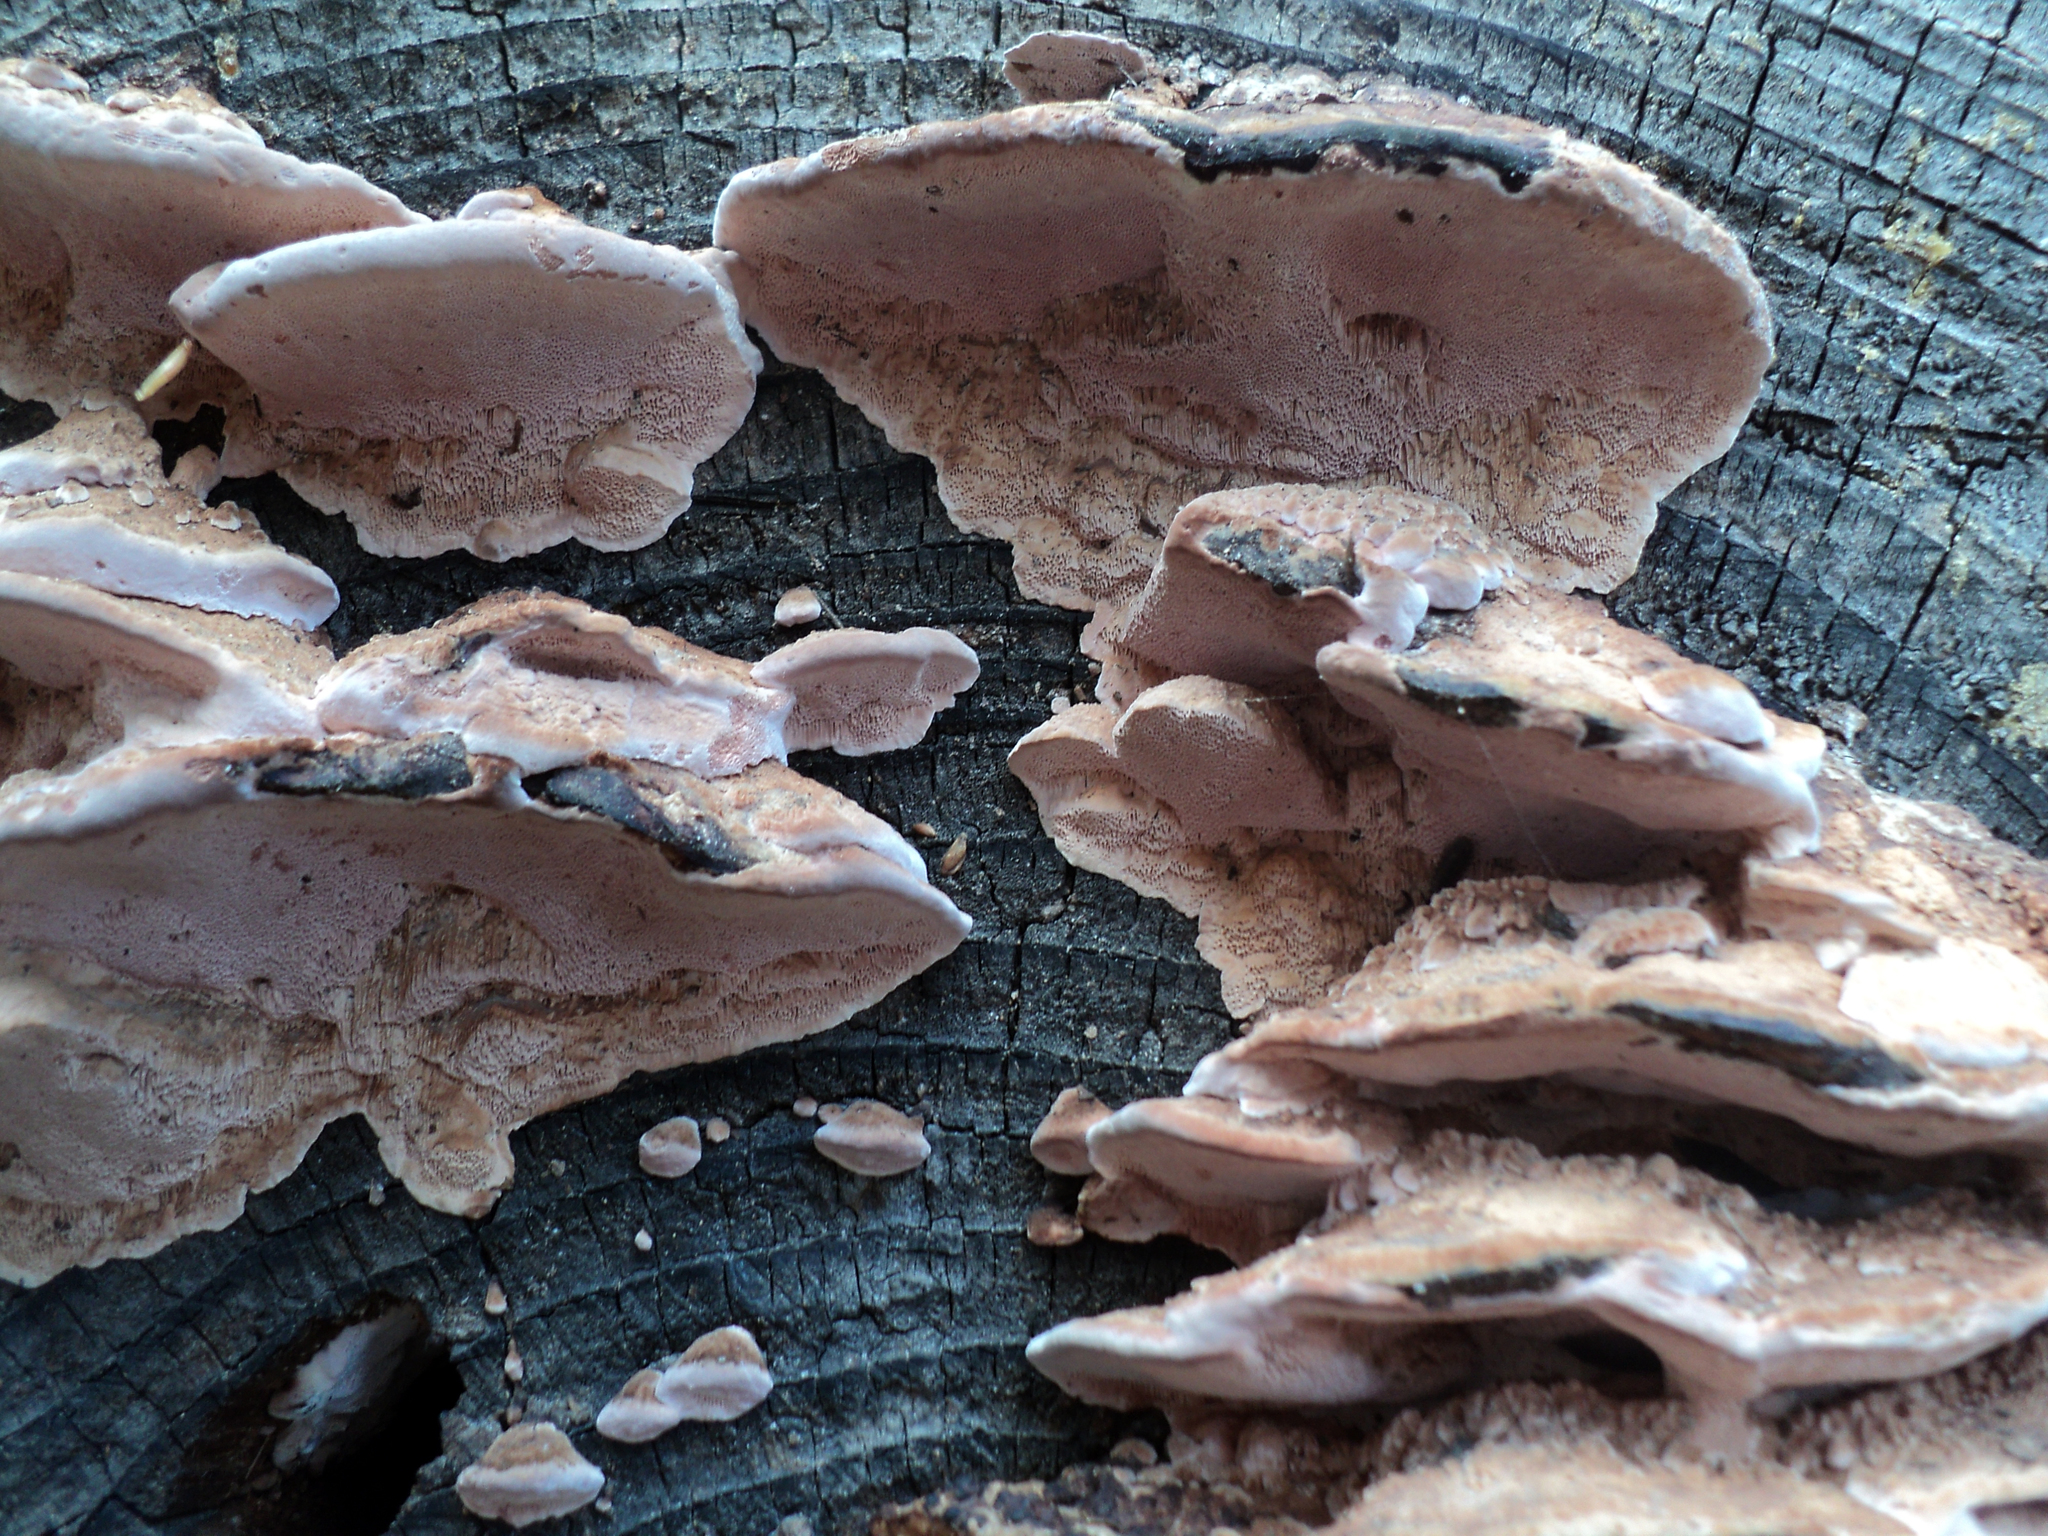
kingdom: Fungi
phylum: Basidiomycota
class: Agaricomycetes
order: Polyporales
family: Fomitopsidaceae
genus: Rhodofomes
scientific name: Rhodofomes cajanderi
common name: Rosy conk
